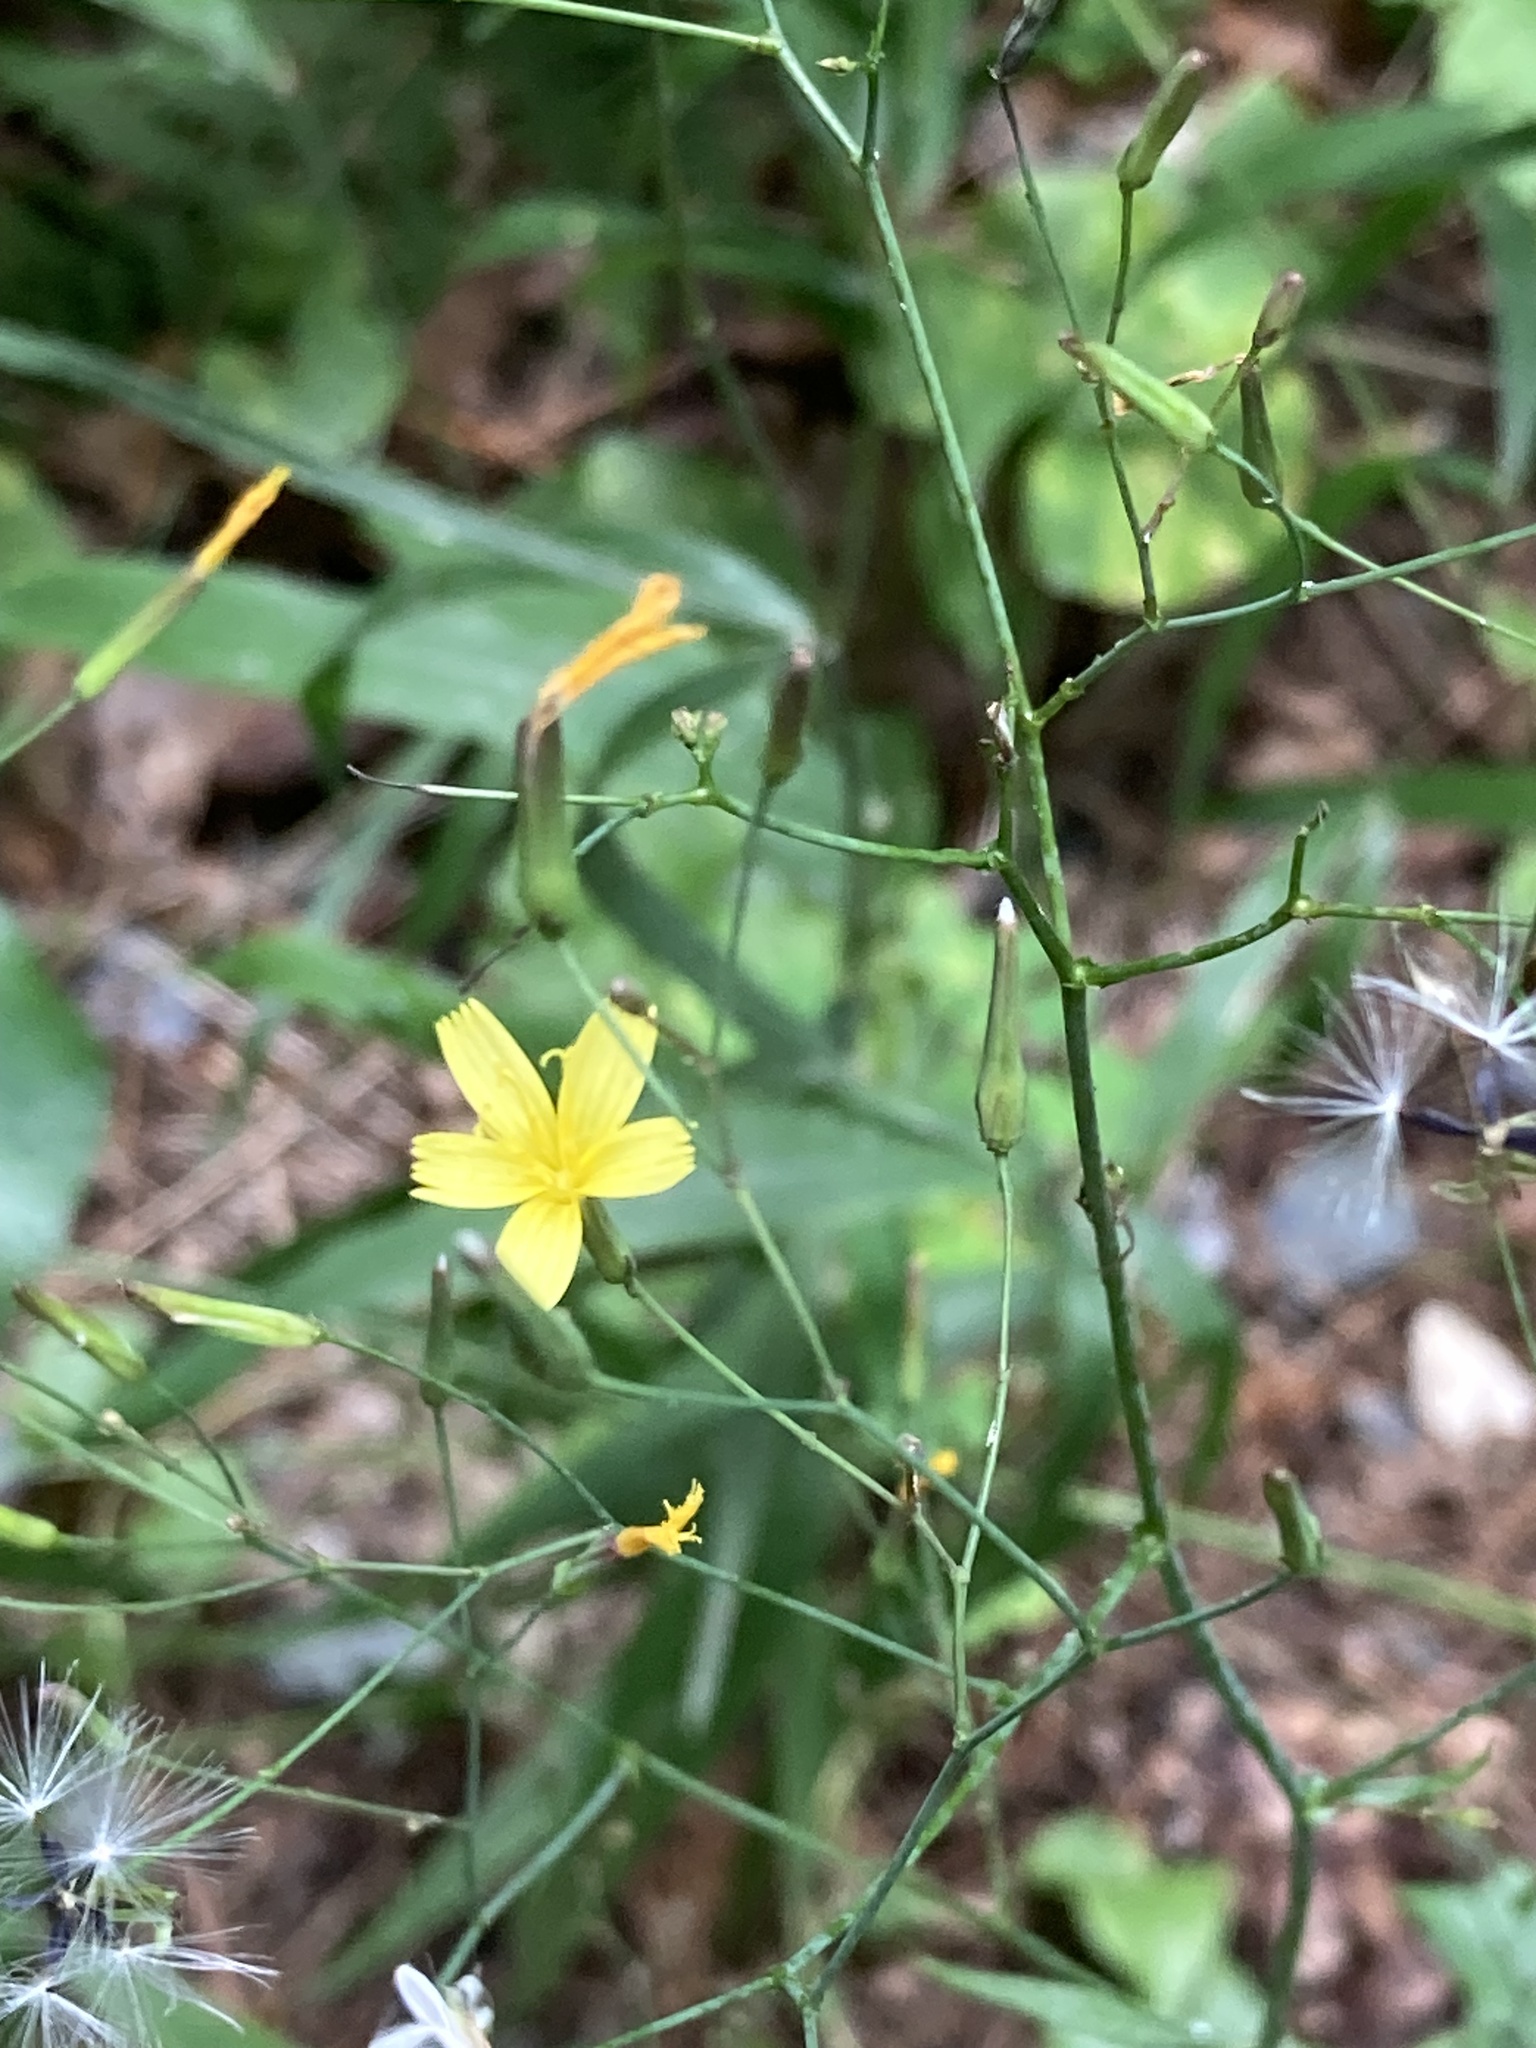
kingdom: Plantae
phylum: Tracheophyta
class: Magnoliopsida
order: Asterales
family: Asteraceae
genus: Mycelis
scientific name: Mycelis muralis
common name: Wall lettuce
